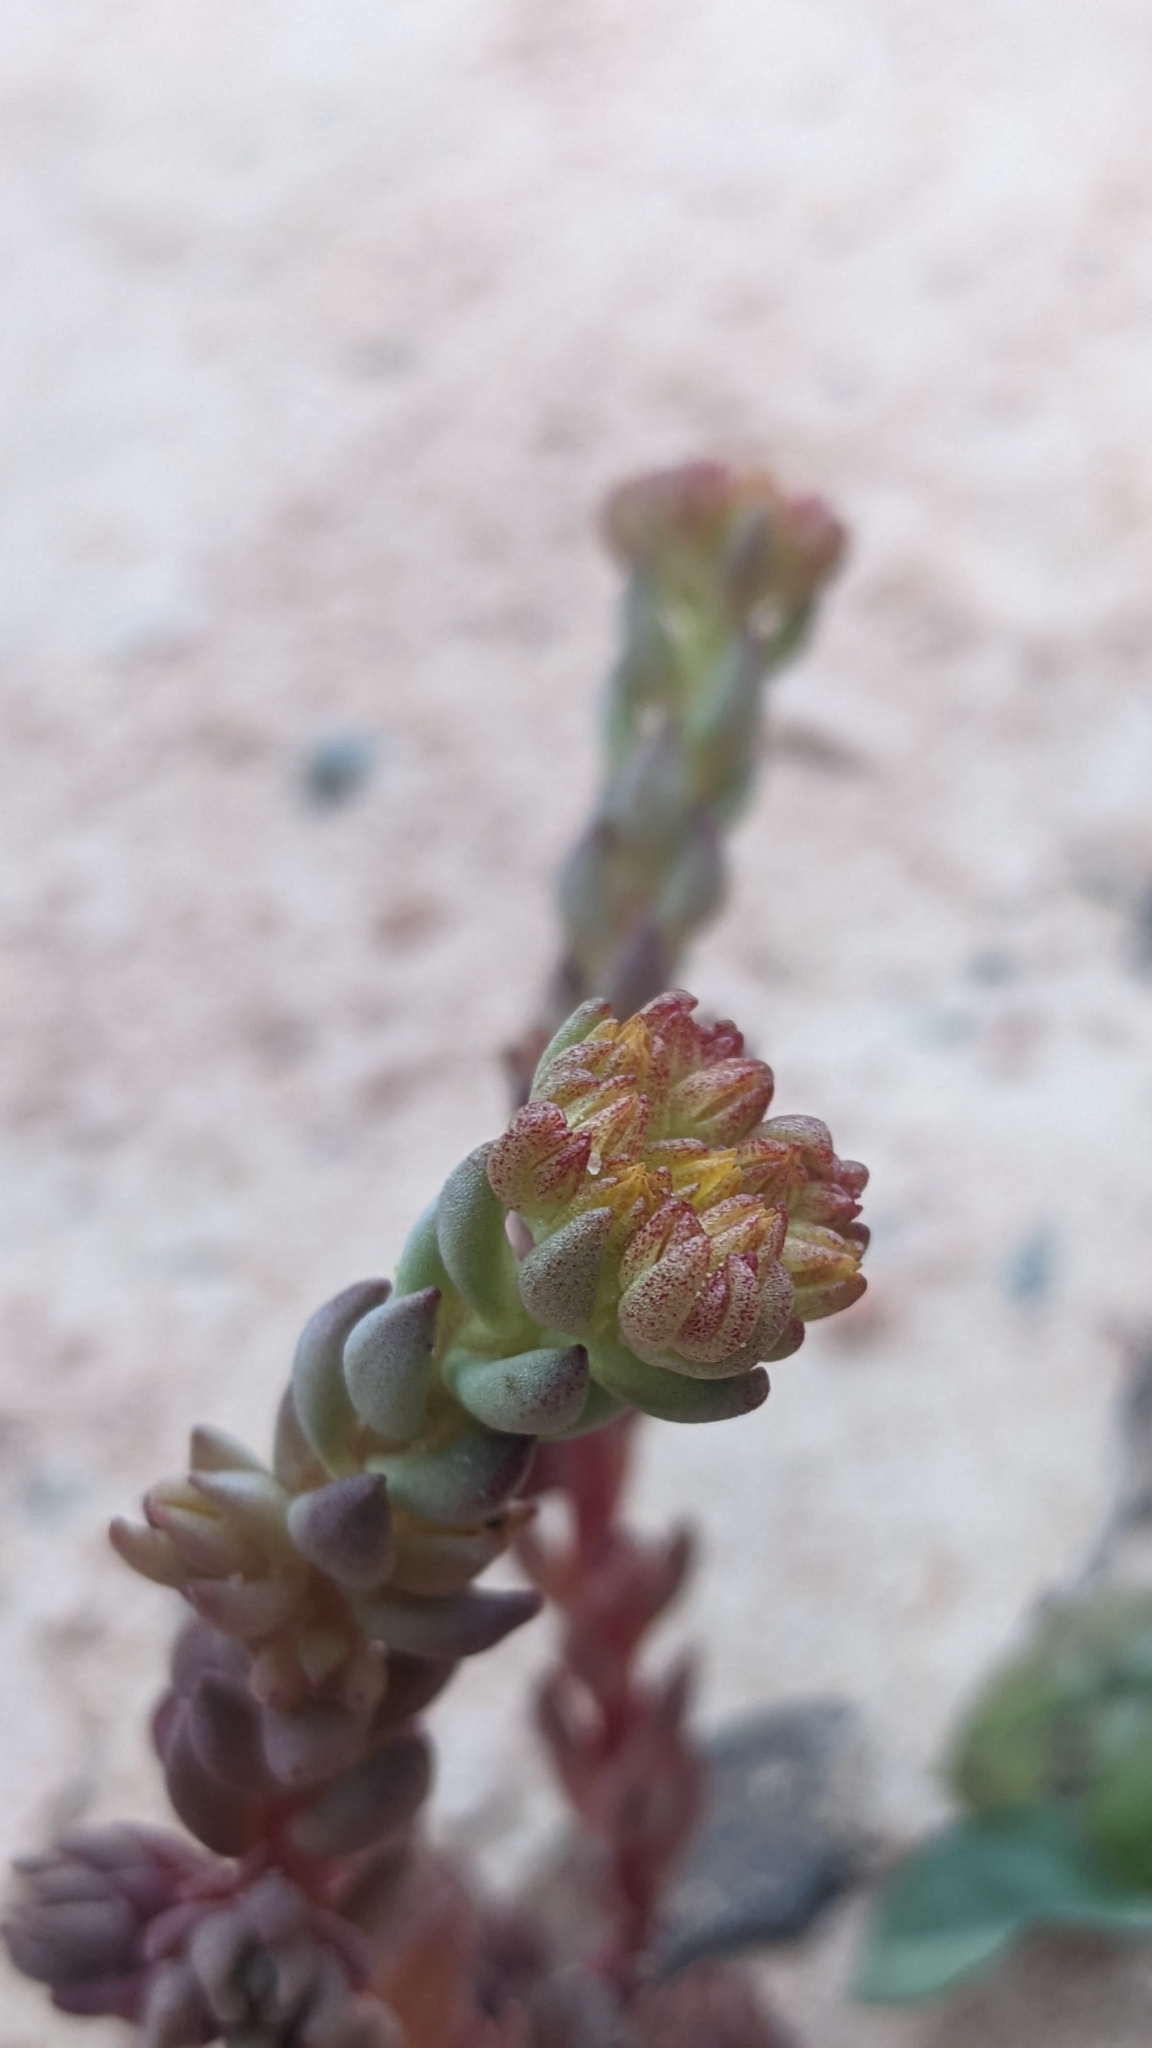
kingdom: Plantae
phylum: Tracheophyta
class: Magnoliopsida
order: Saxifragales
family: Crassulaceae
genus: Sedum
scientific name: Sedum lanceolatum
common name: Common stonecrop
